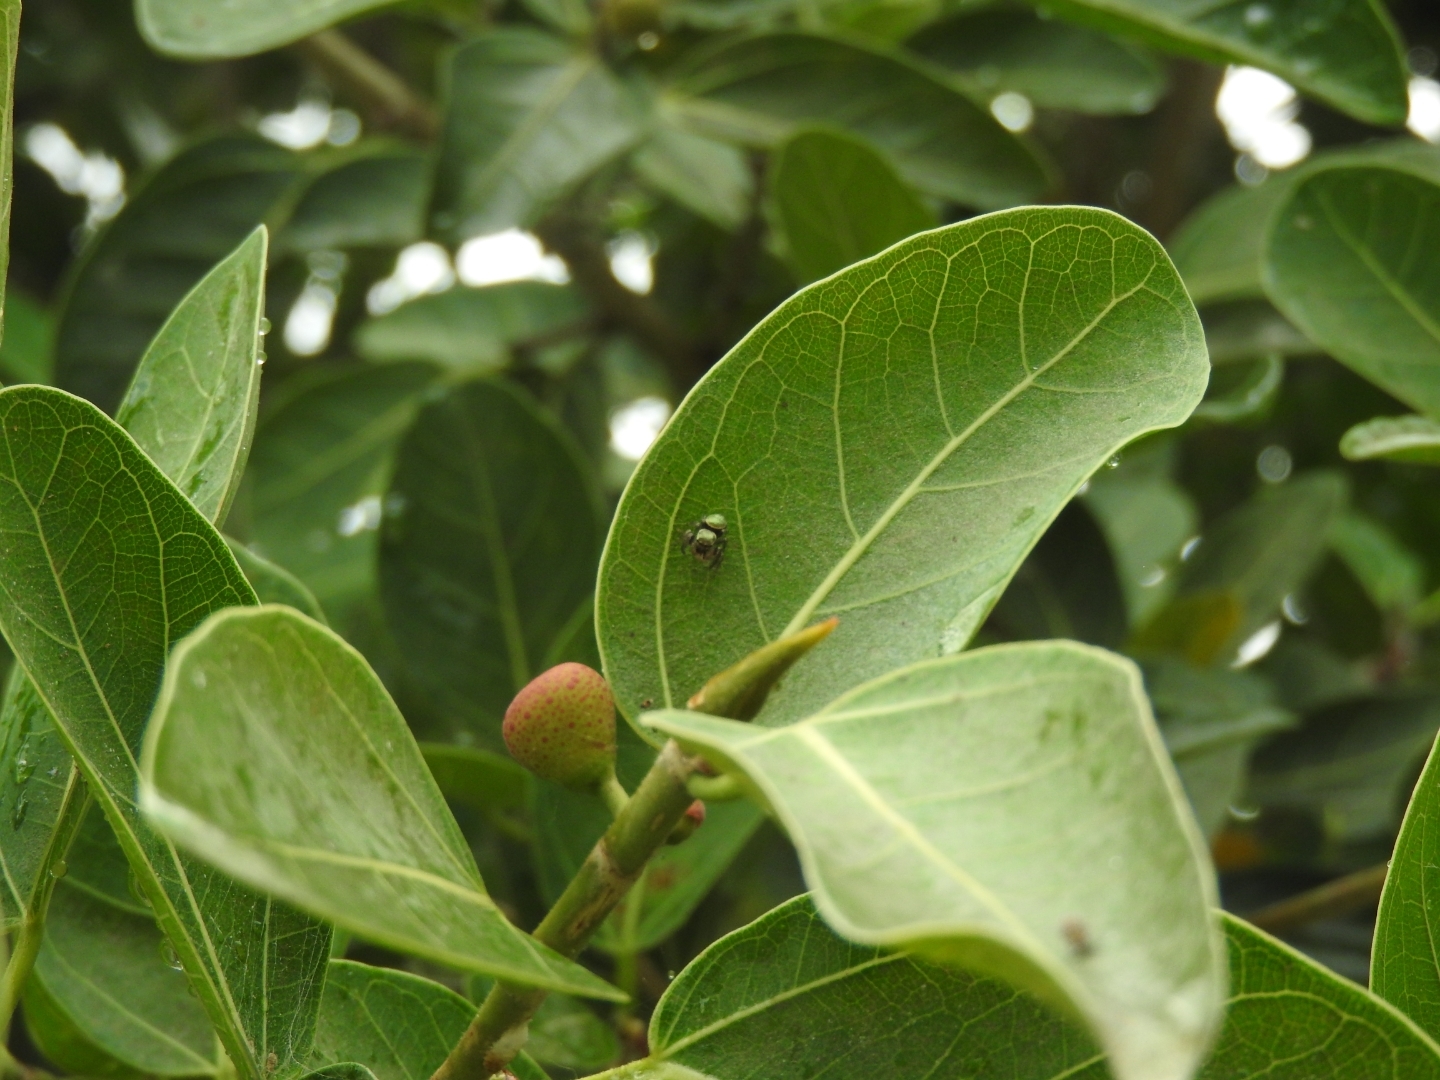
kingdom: Animalia
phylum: Arthropoda
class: Arachnida
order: Araneae
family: Salticidae
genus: Messua
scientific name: Messua limbata
